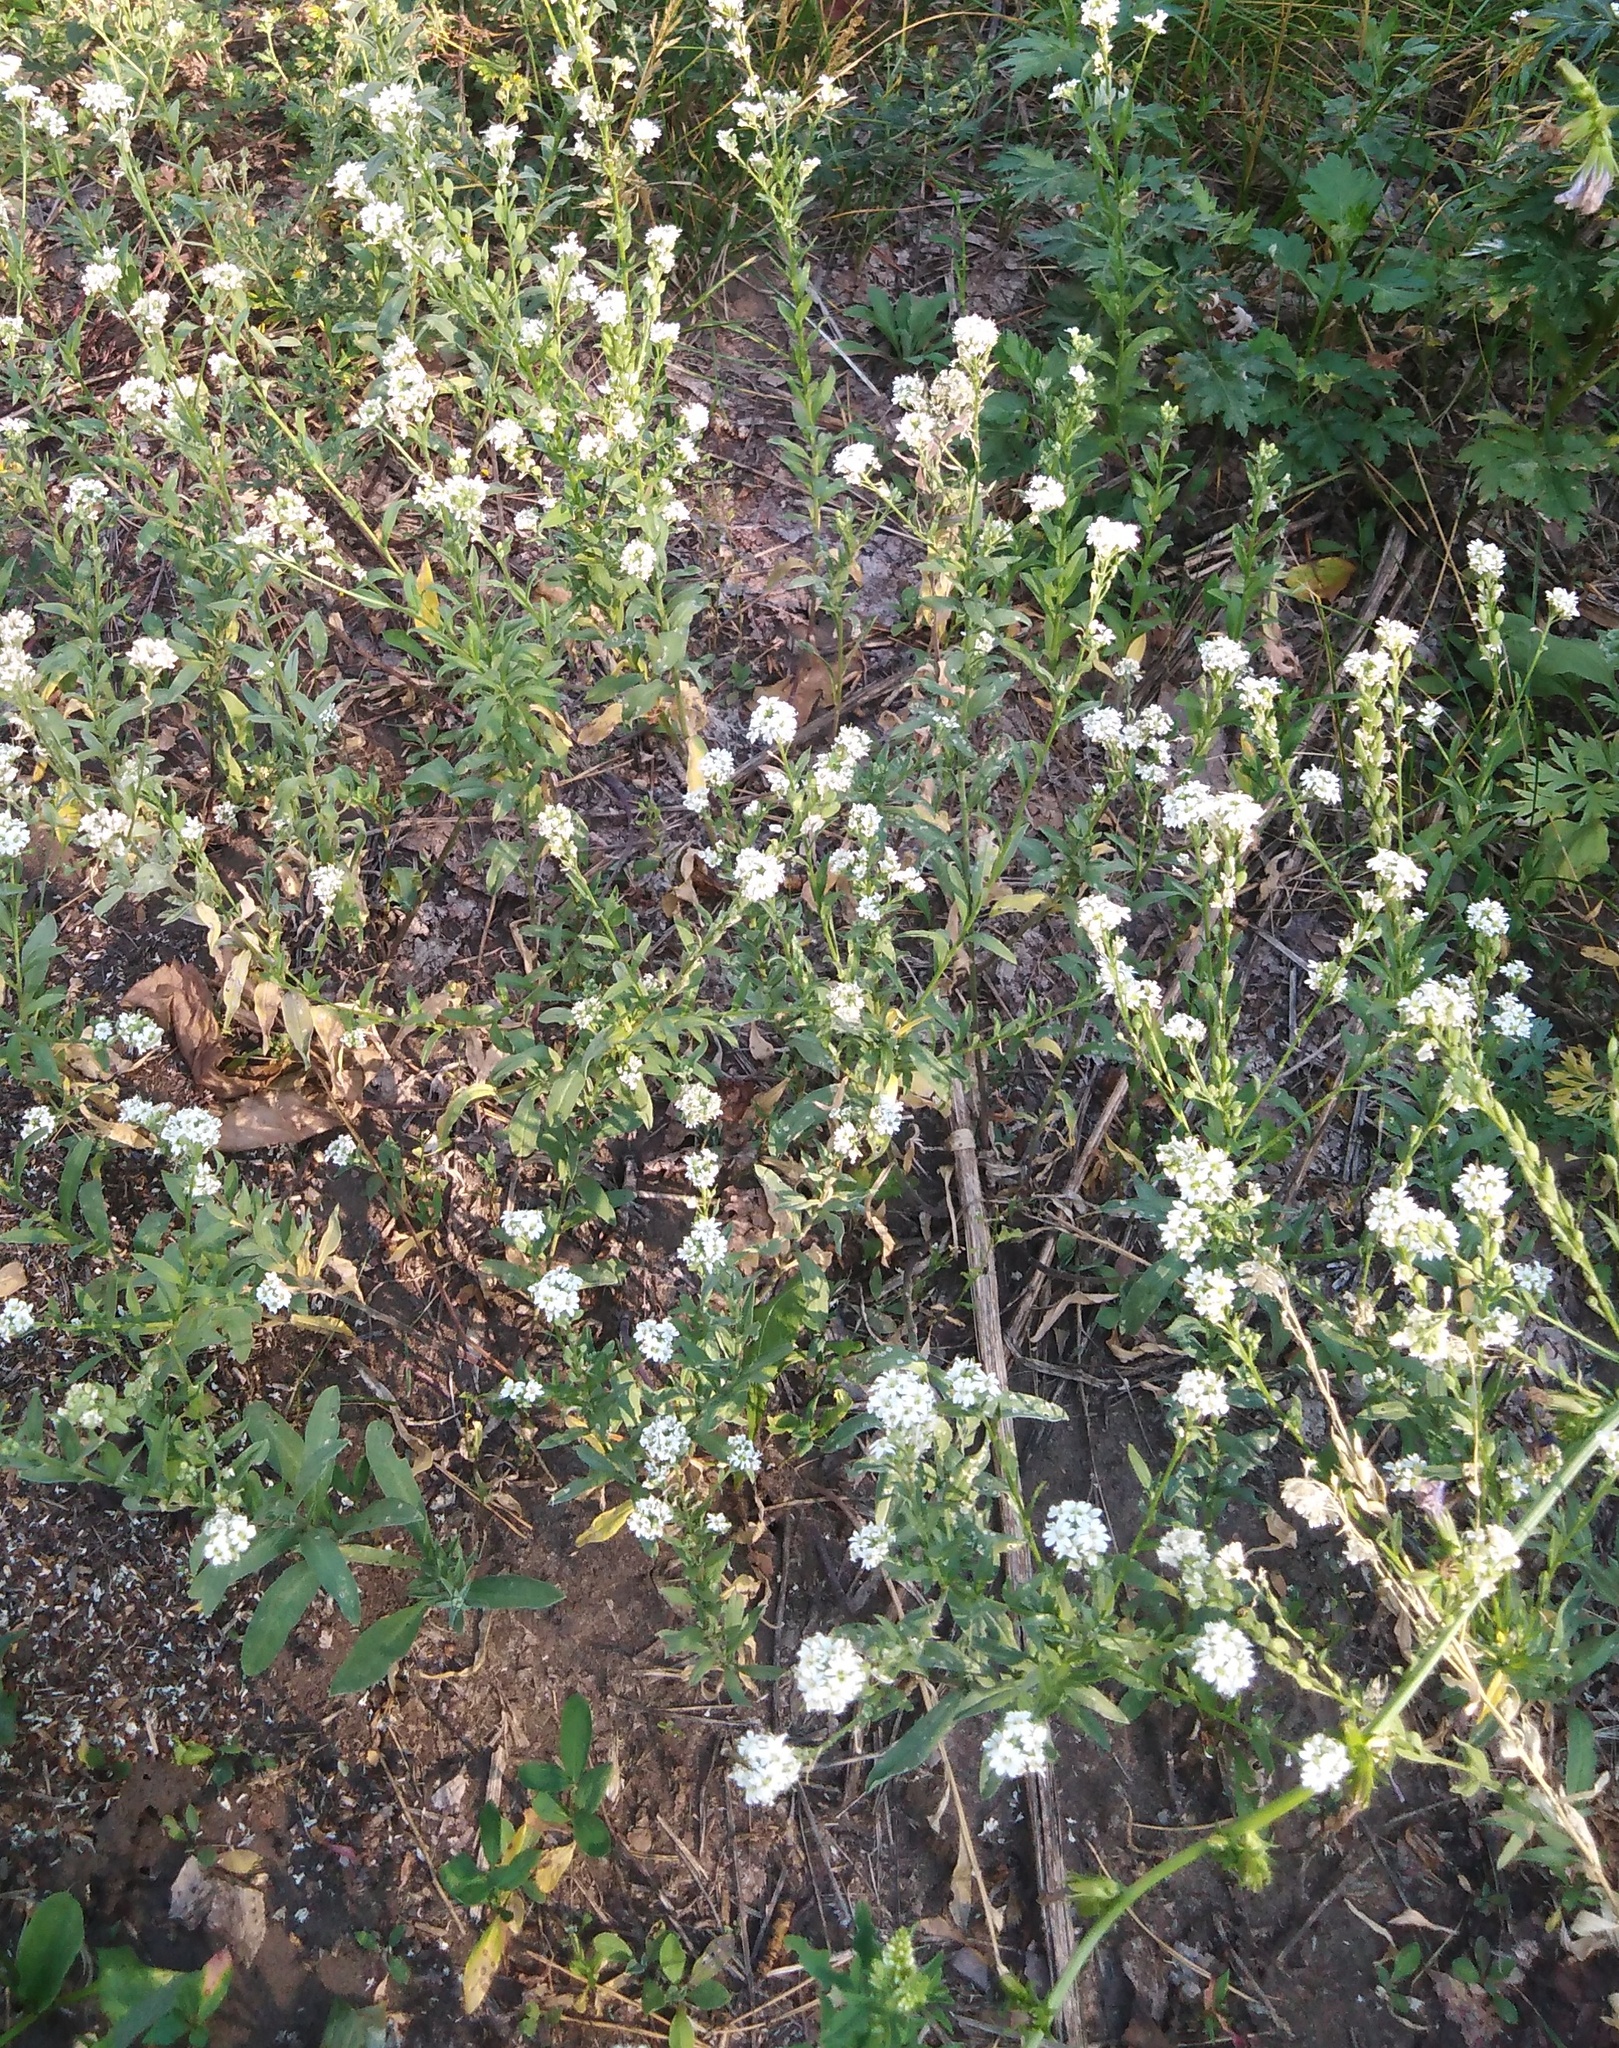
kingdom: Plantae
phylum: Tracheophyta
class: Magnoliopsida
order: Brassicales
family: Brassicaceae
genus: Berteroa
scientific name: Berteroa incana
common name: Hoary alison
